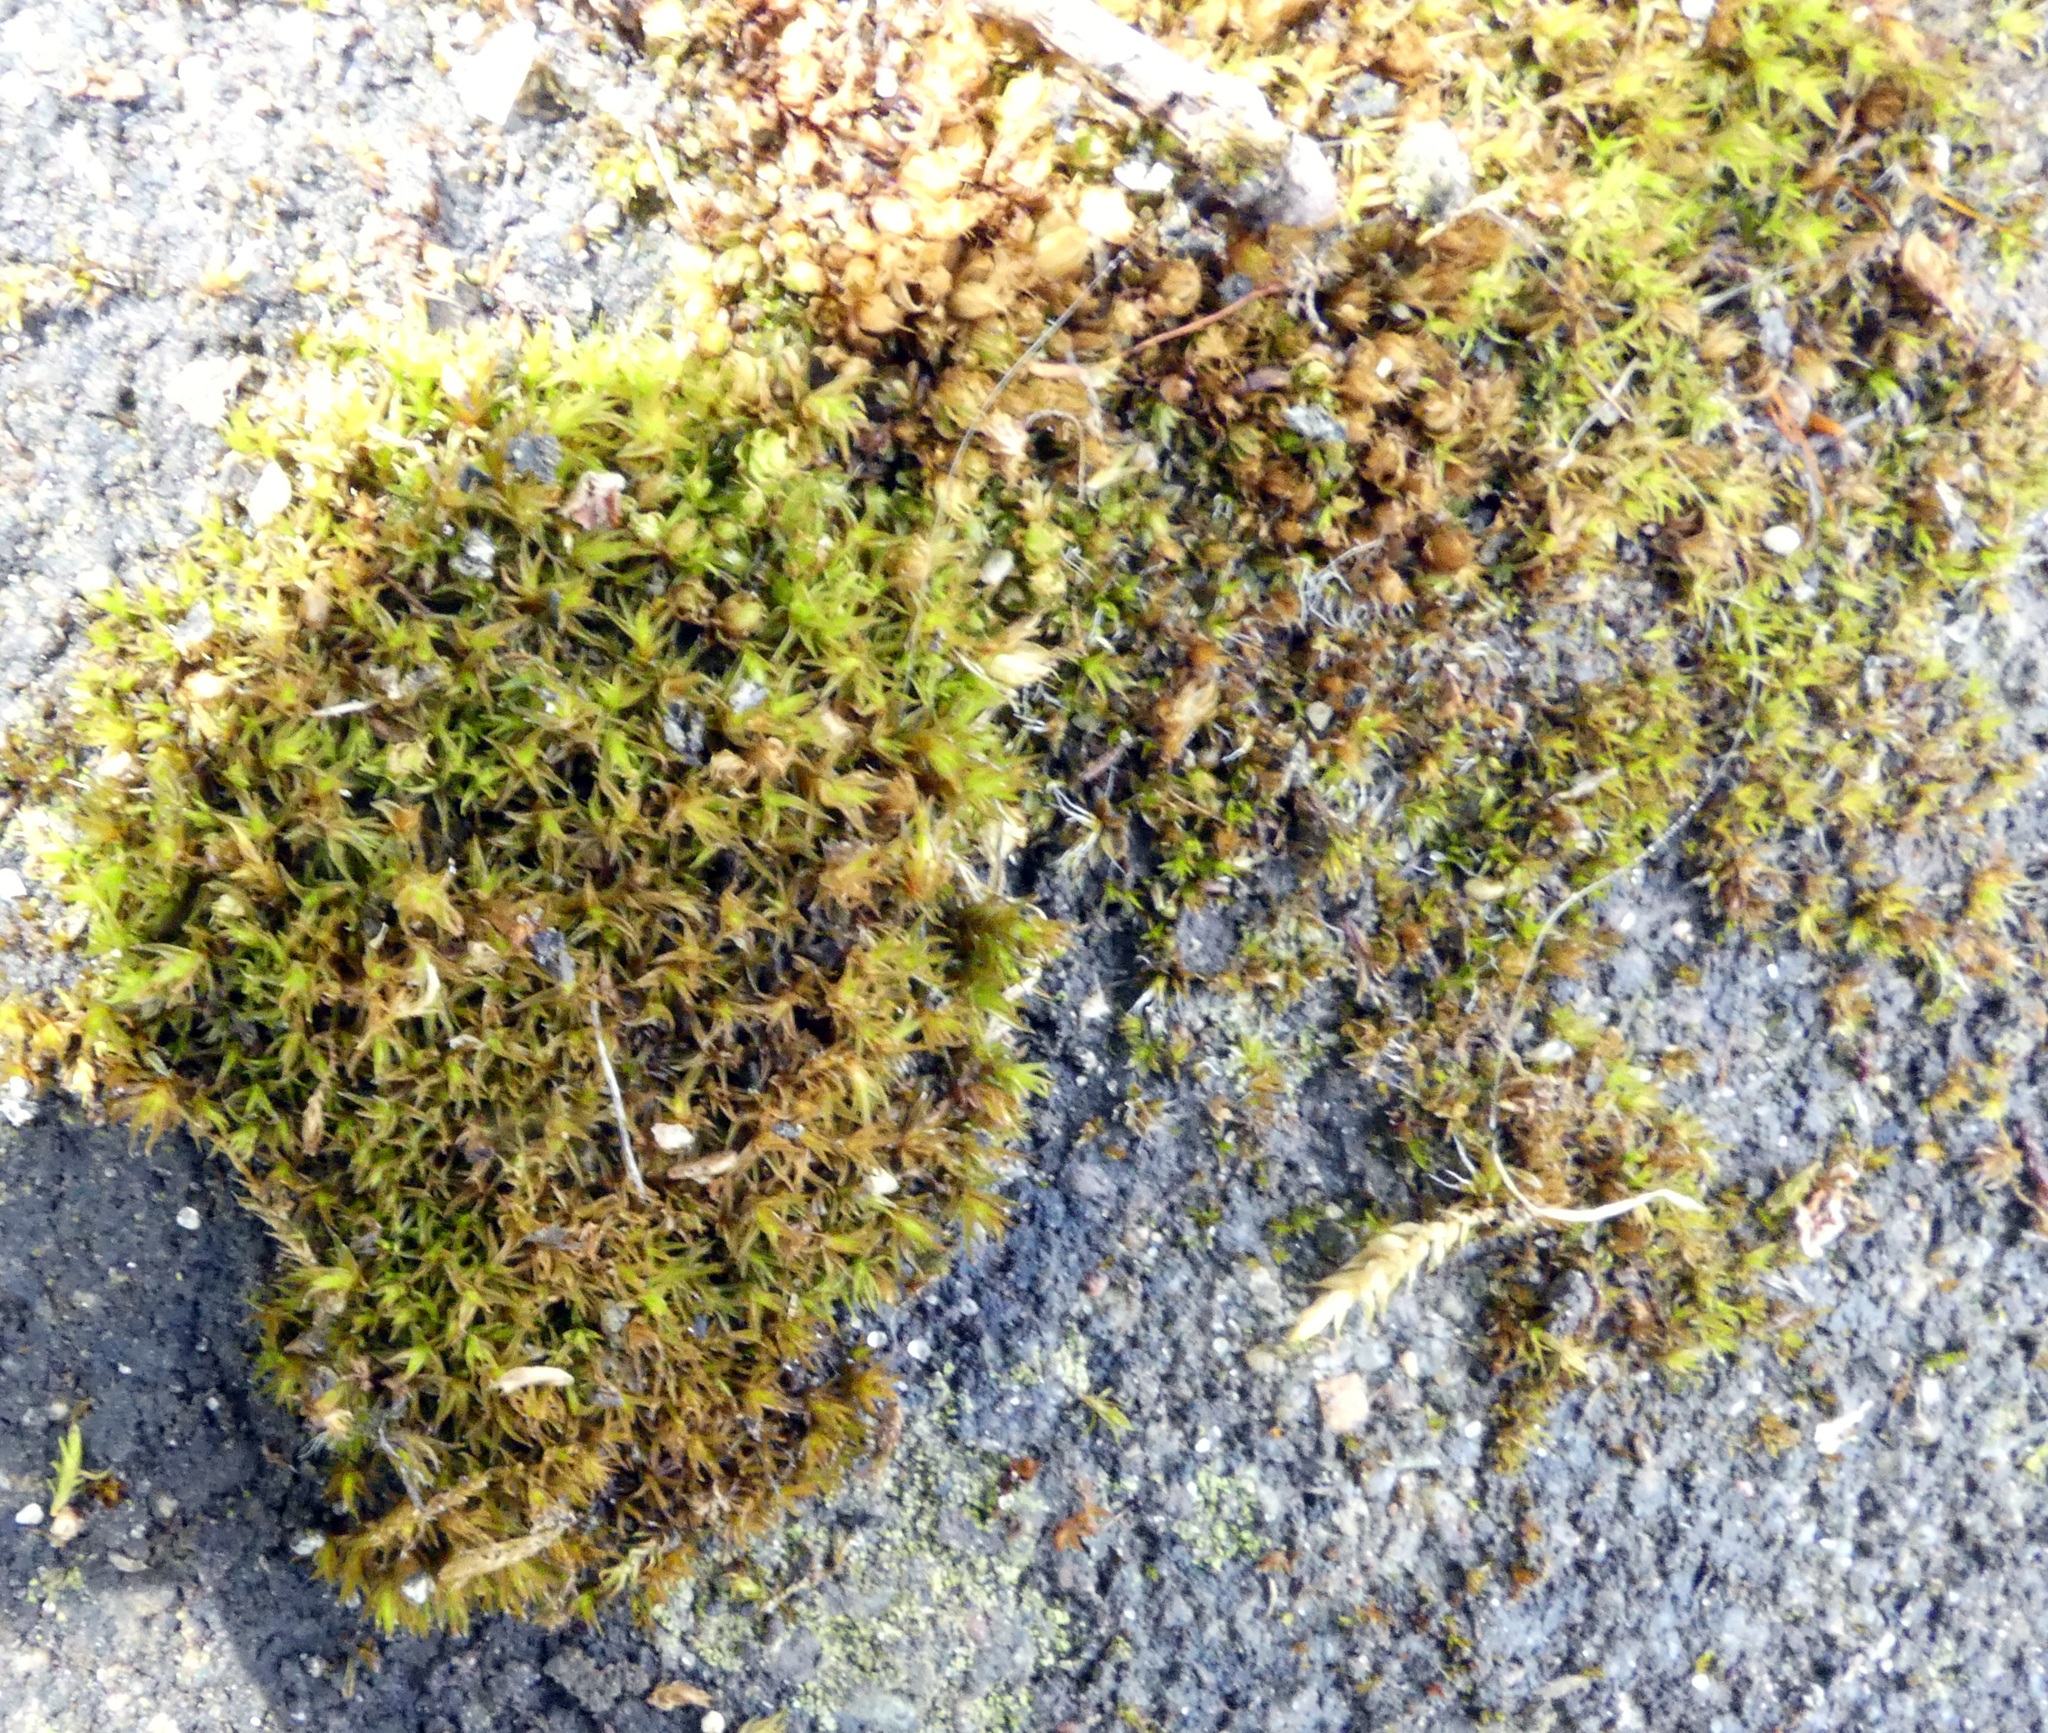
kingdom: Plantae
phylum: Bryophyta
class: Bryopsida
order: Pottiales
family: Pottiaceae
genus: Syntrichia
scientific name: Syntrichia ruralis
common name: Sidewalk screw moss
